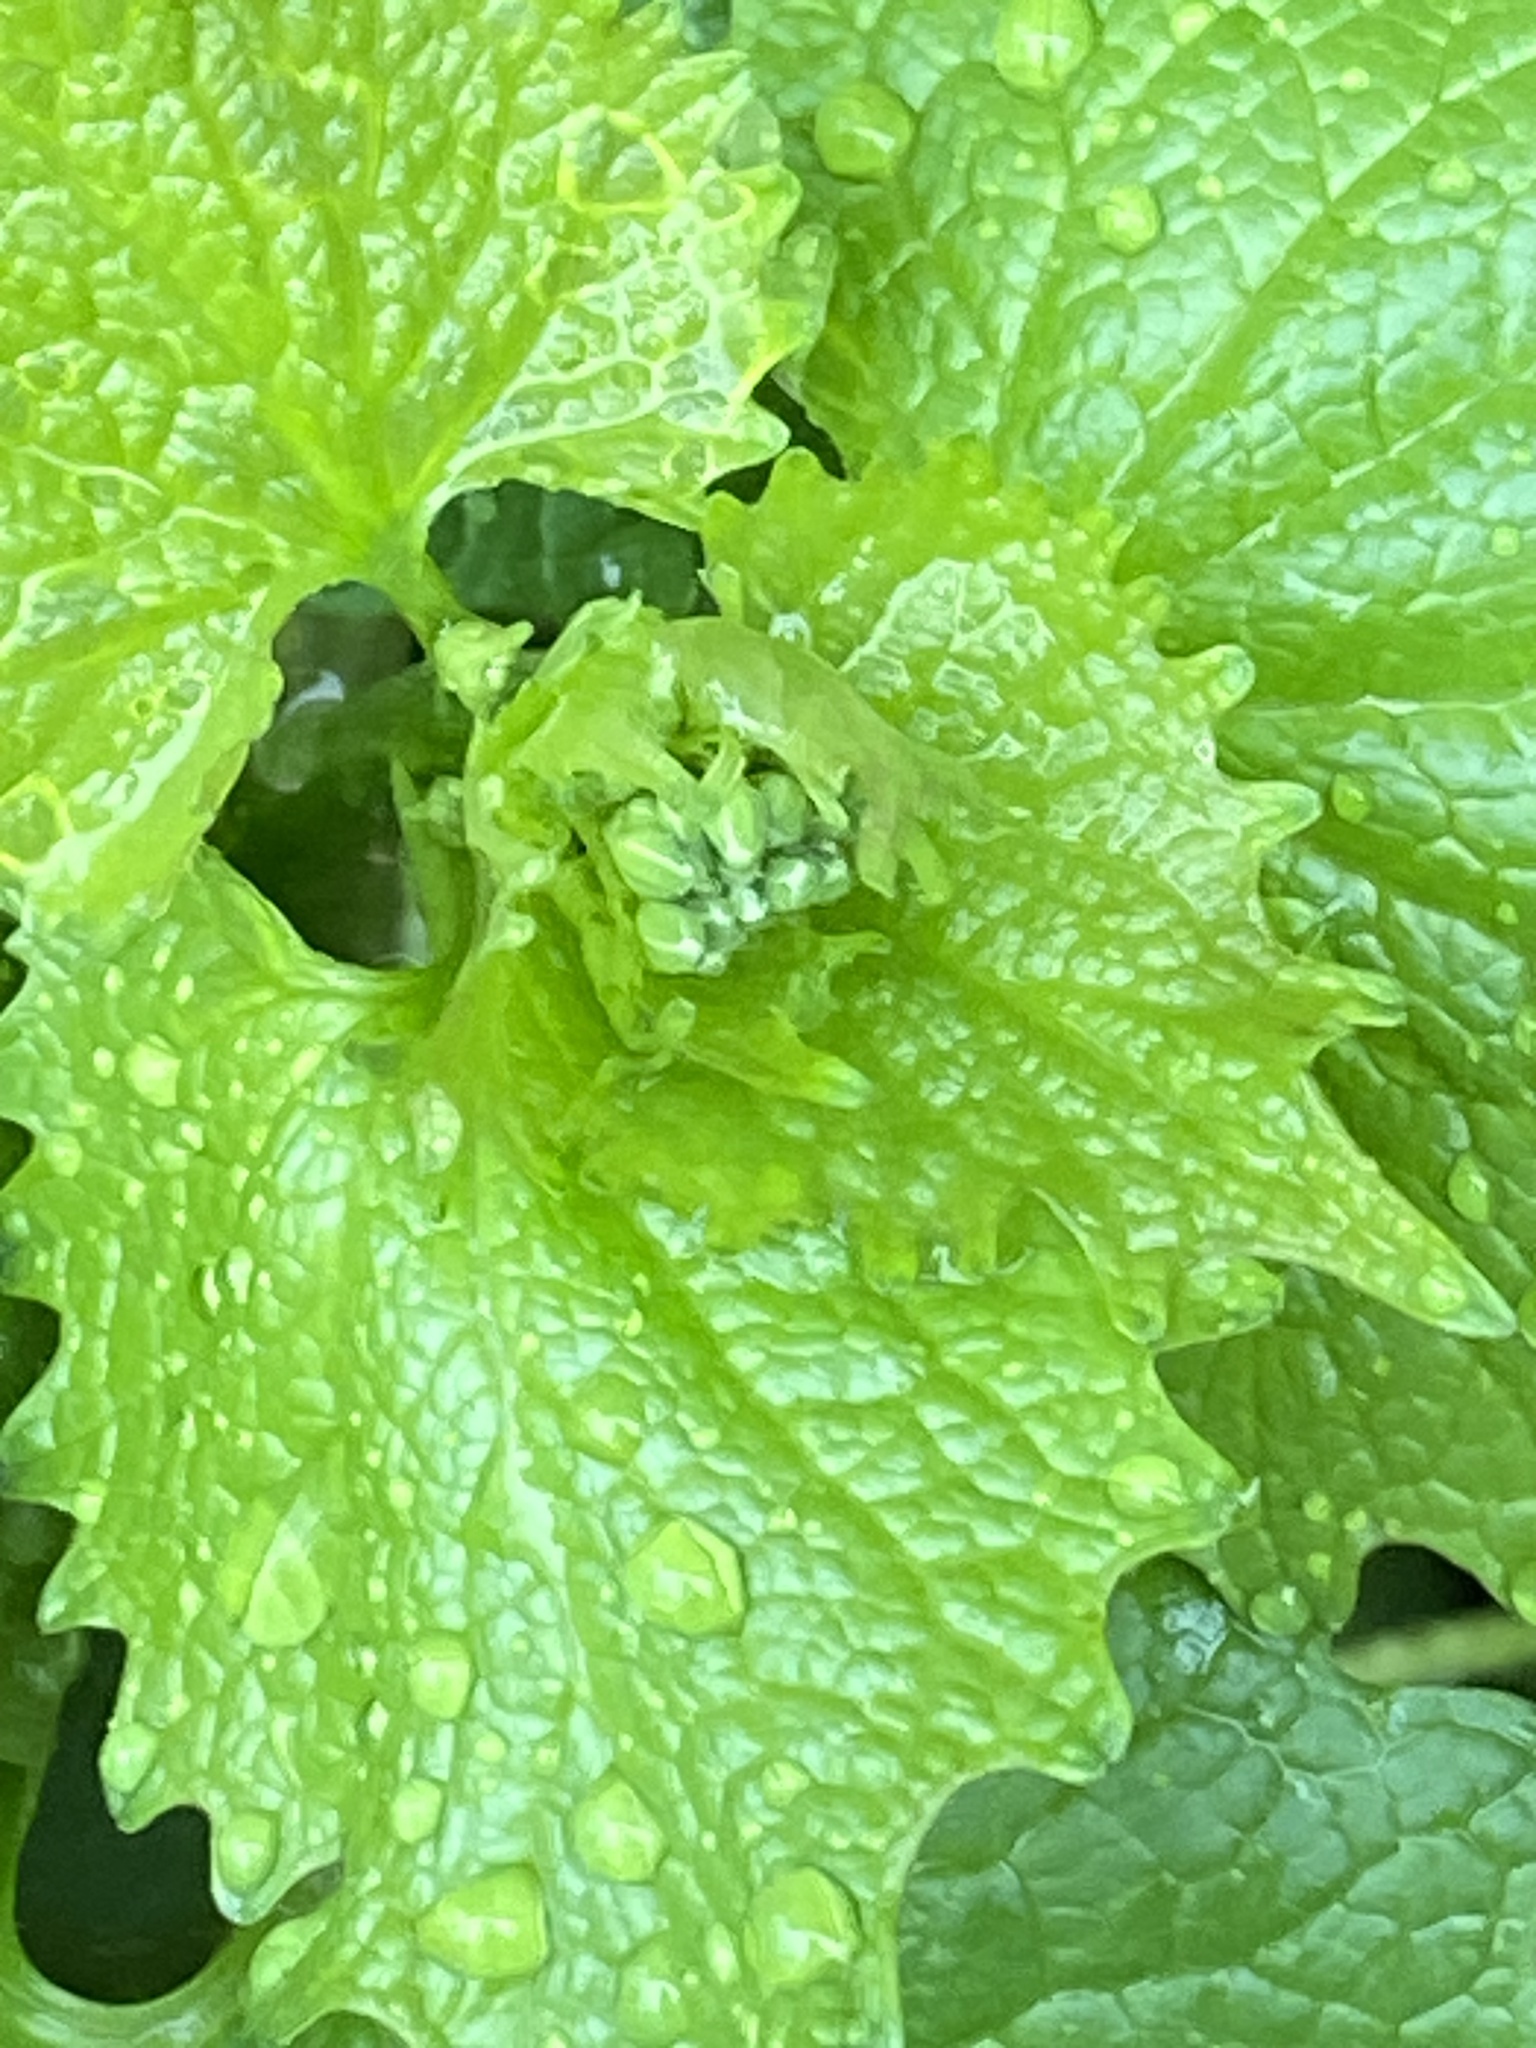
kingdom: Plantae
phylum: Tracheophyta
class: Magnoliopsida
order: Brassicales
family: Brassicaceae
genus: Alliaria
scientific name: Alliaria petiolata
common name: Garlic mustard
